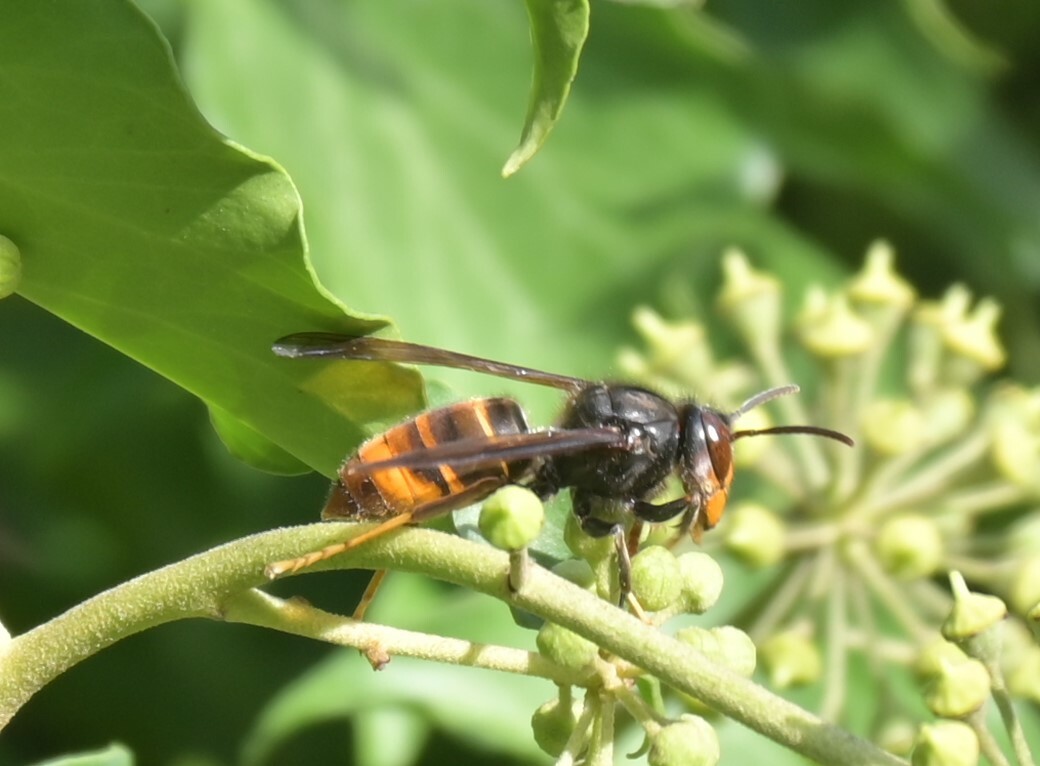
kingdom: Animalia
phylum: Arthropoda
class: Insecta
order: Hymenoptera
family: Vespidae
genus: Vespa
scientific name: Vespa velutina
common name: Asian hornet
